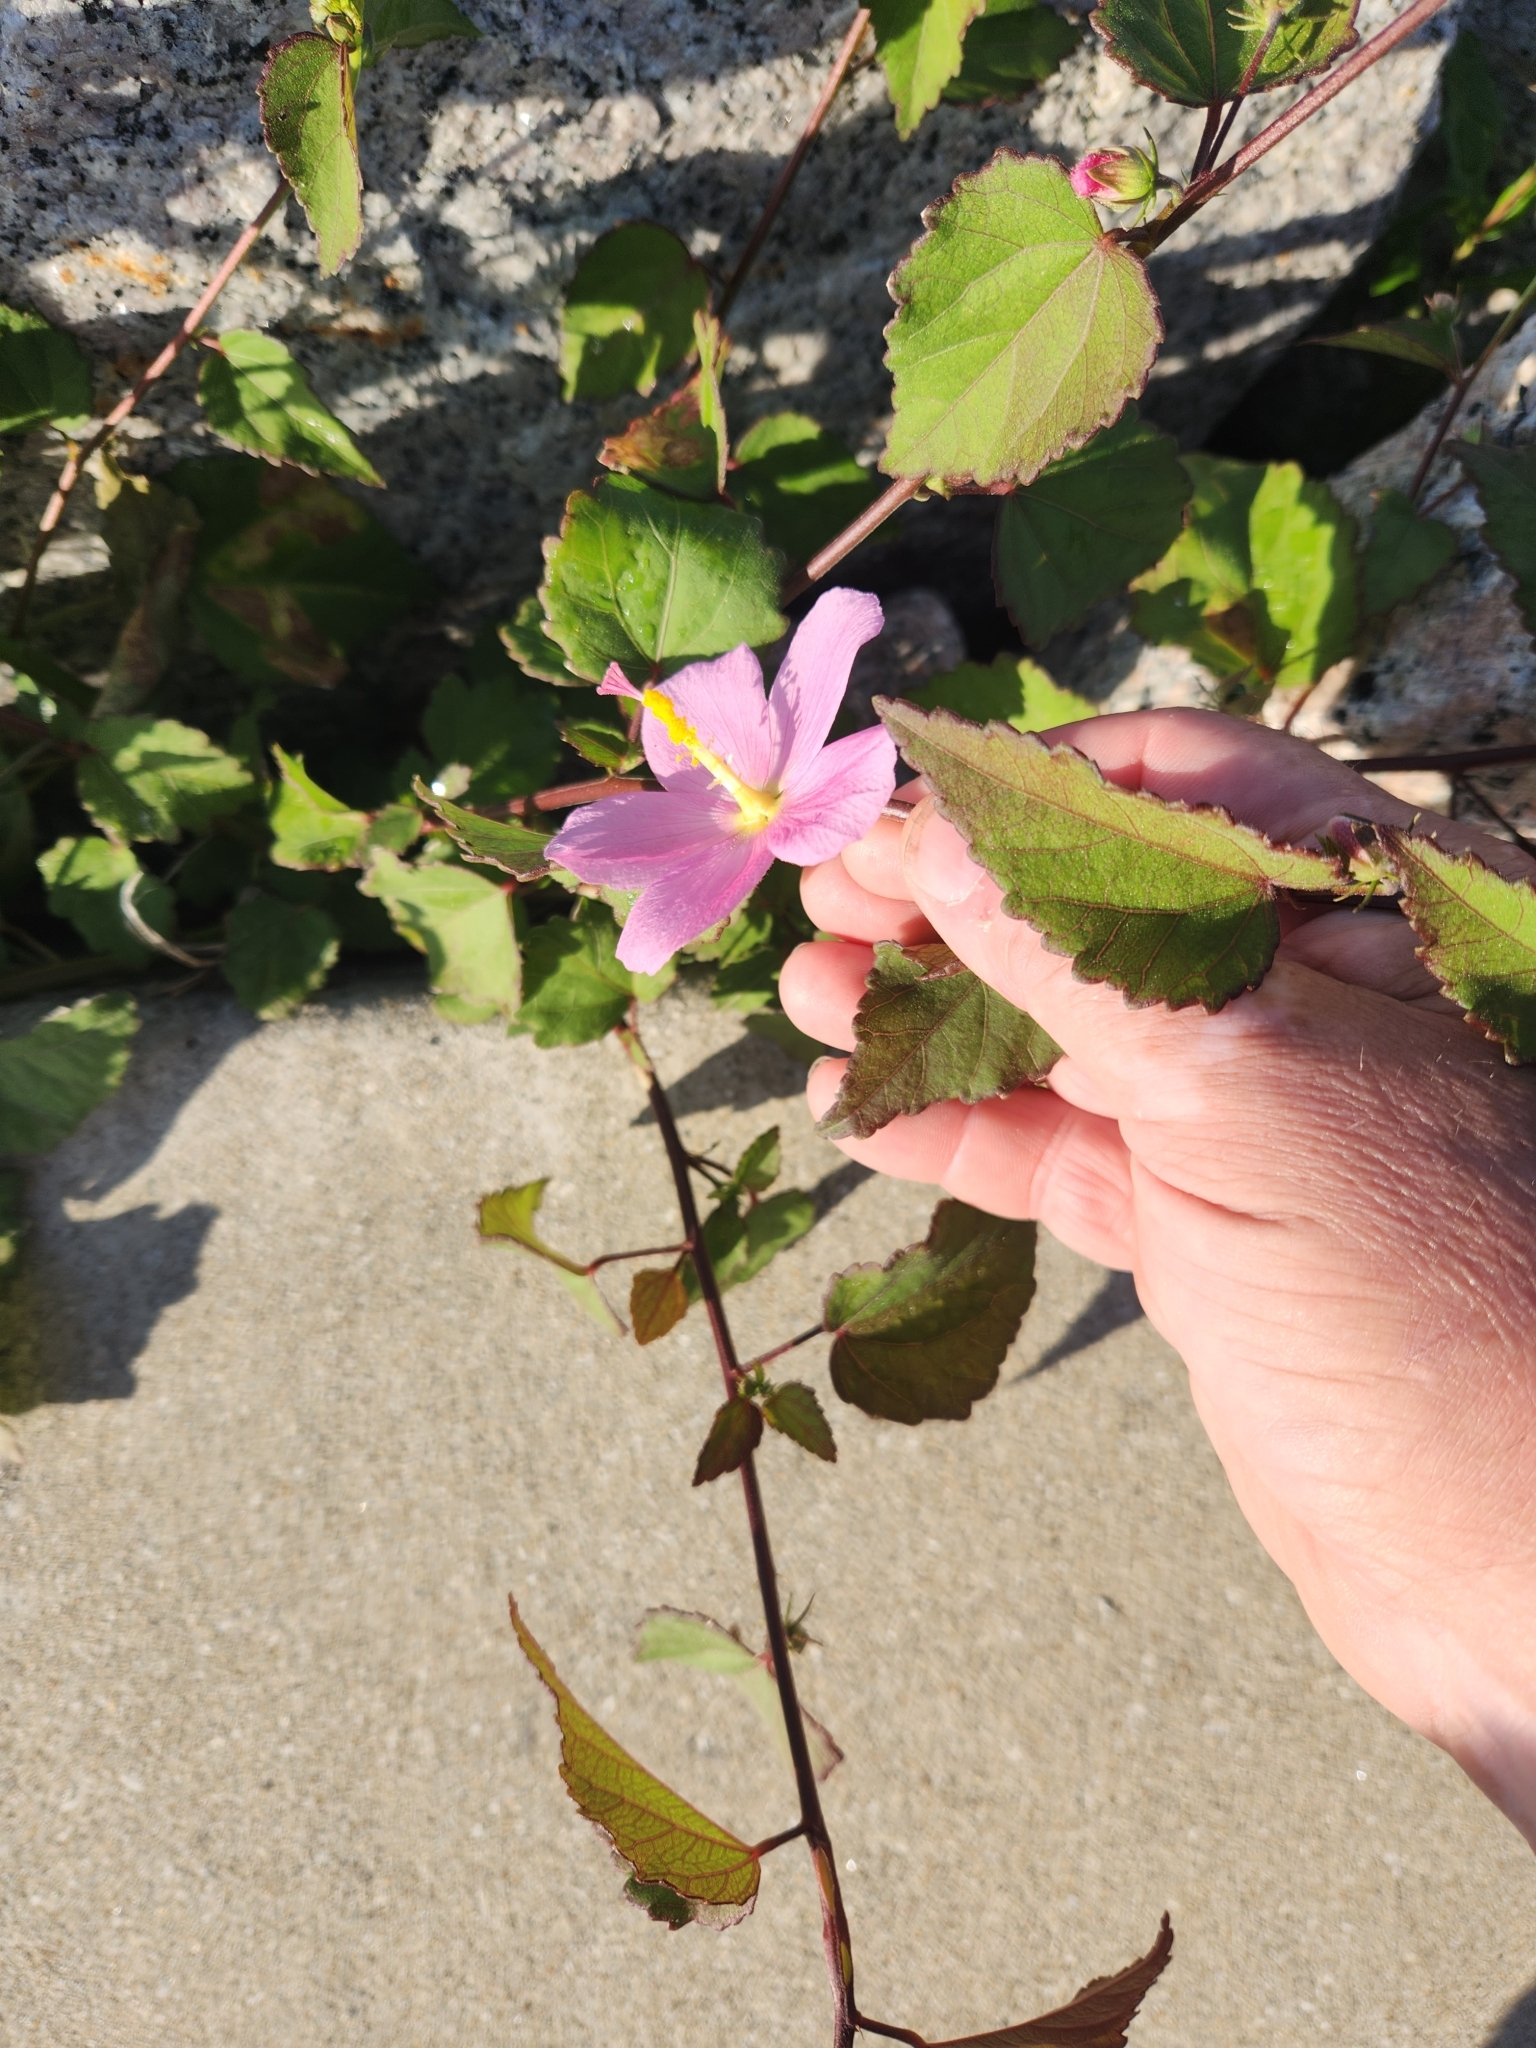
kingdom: Plantae
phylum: Tracheophyta
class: Magnoliopsida
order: Malvales
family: Malvaceae
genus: Kosteletzkya
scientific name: Kosteletzkya pentacarpos
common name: Virginia saltmarsh mallow
